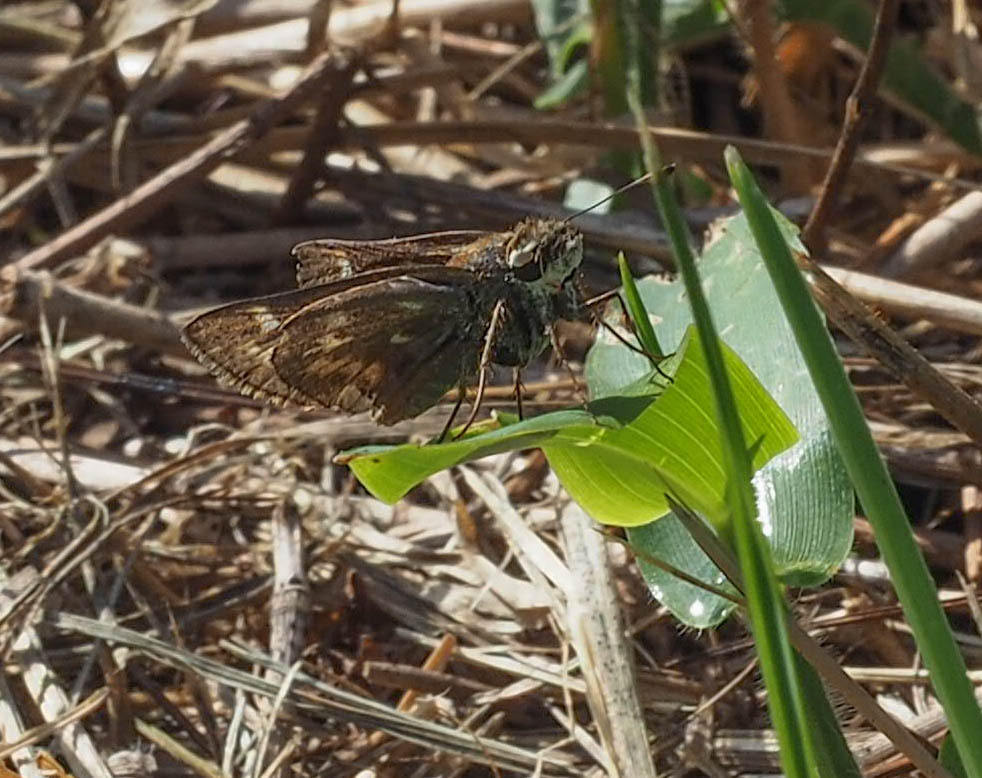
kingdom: Animalia
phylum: Arthropoda
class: Insecta
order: Lepidoptera
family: Hesperiidae
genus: Atalopedes
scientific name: Atalopedes
